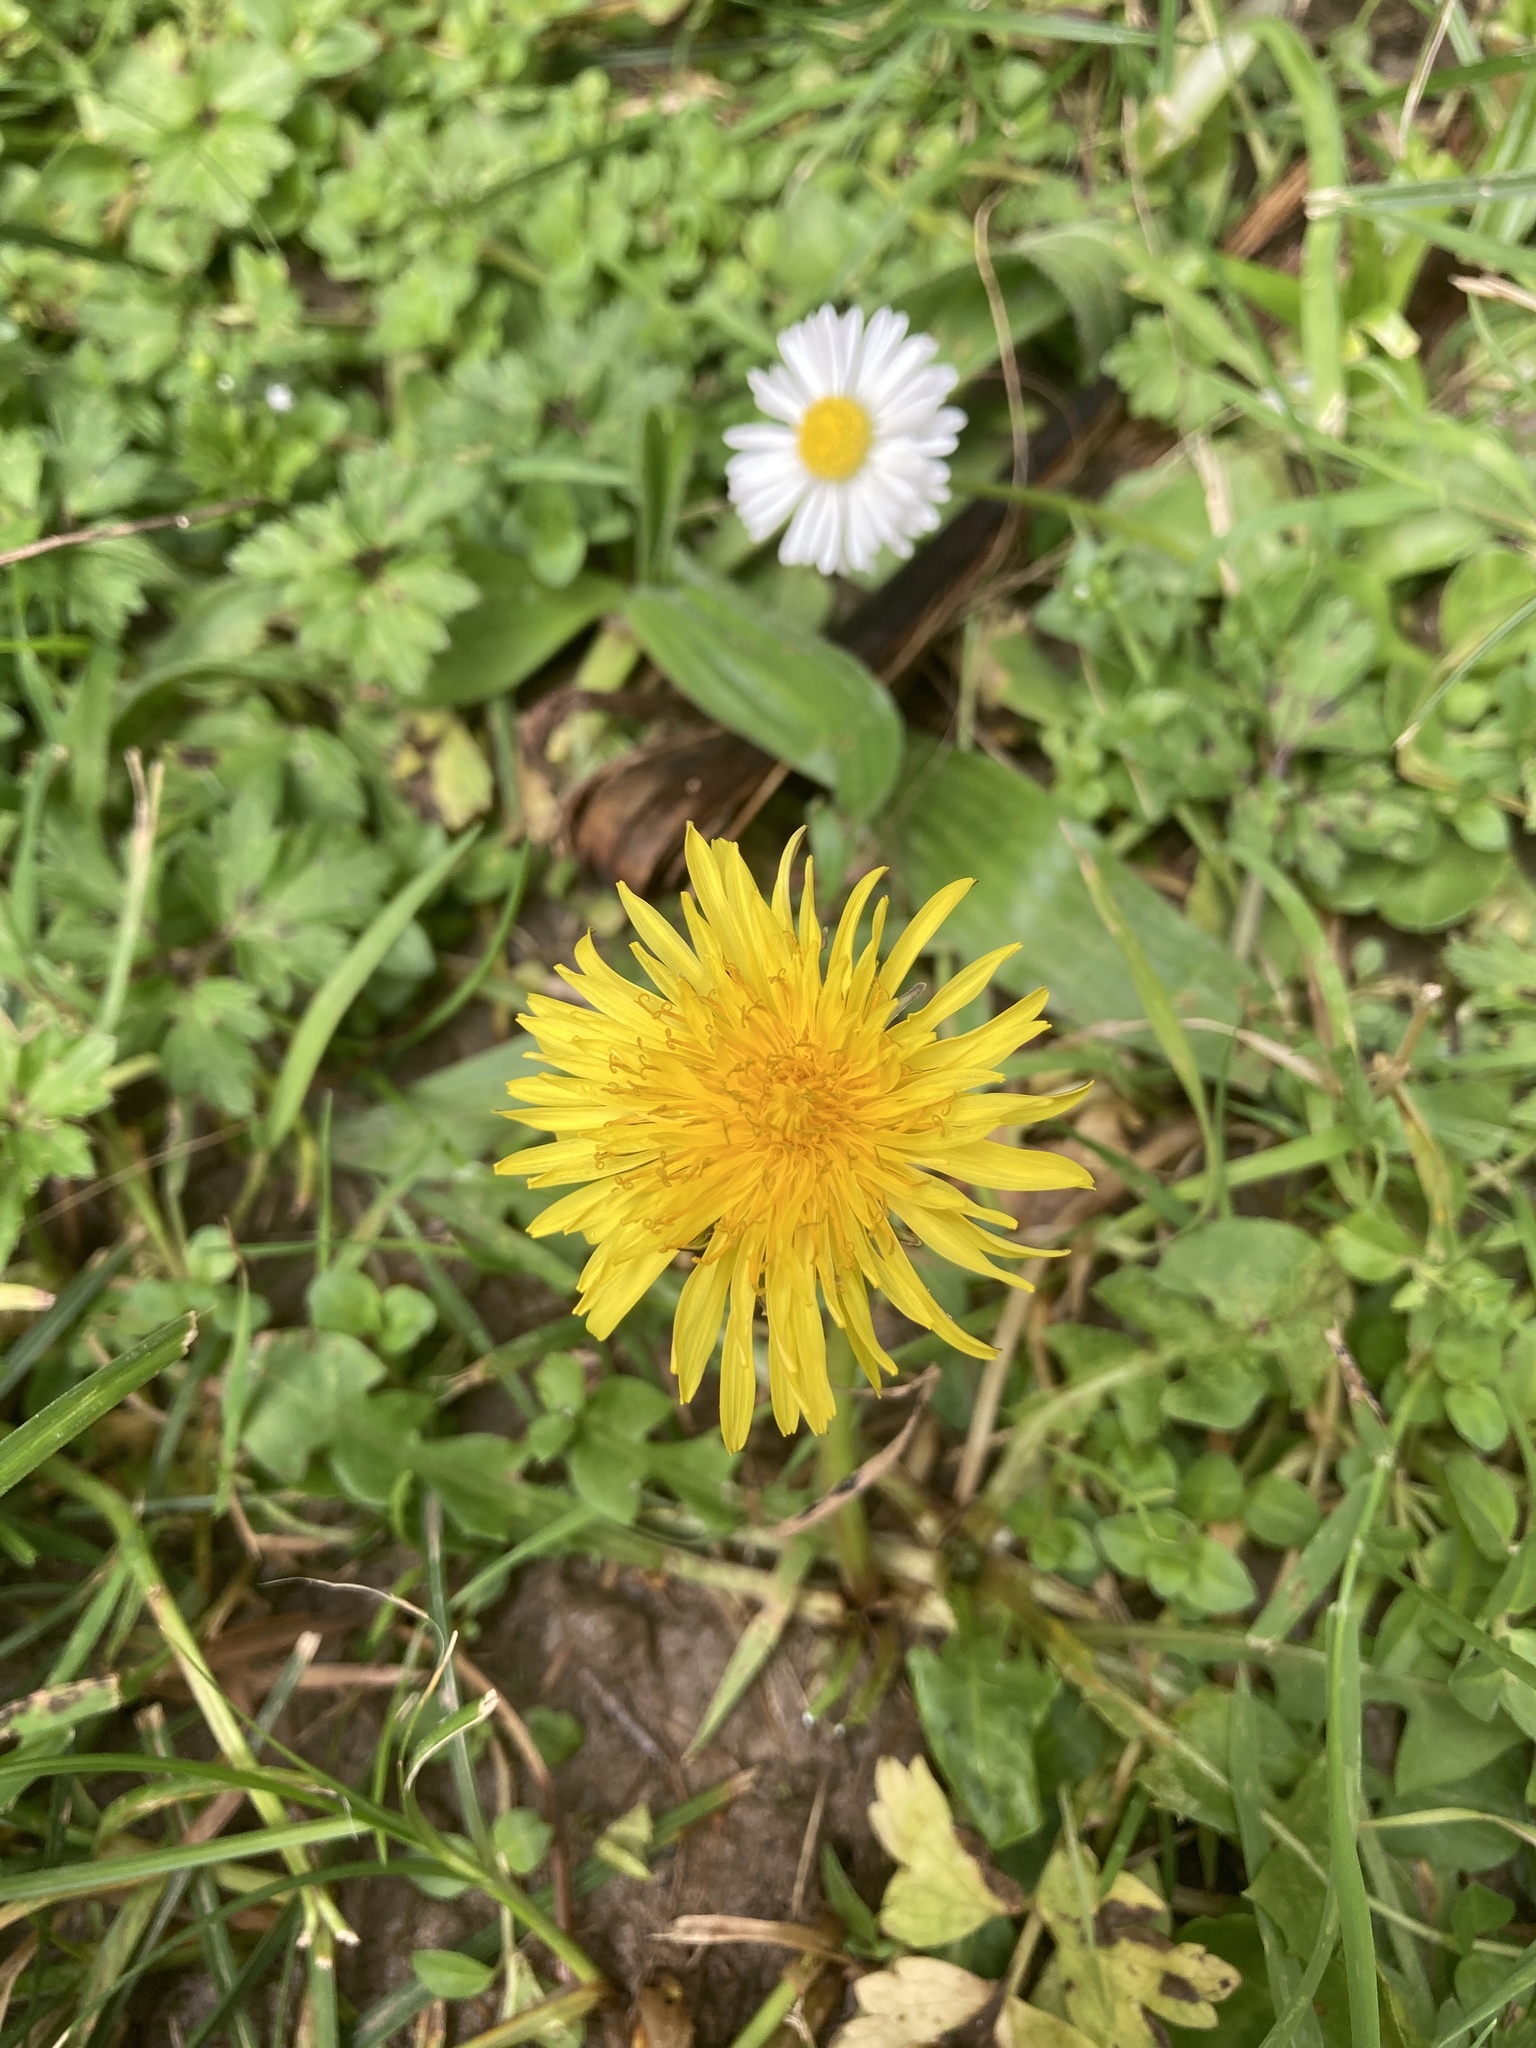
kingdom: Plantae
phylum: Tracheophyta
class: Magnoliopsida
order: Asterales
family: Asteraceae
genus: Taraxacum
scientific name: Taraxacum officinale
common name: Common dandelion
